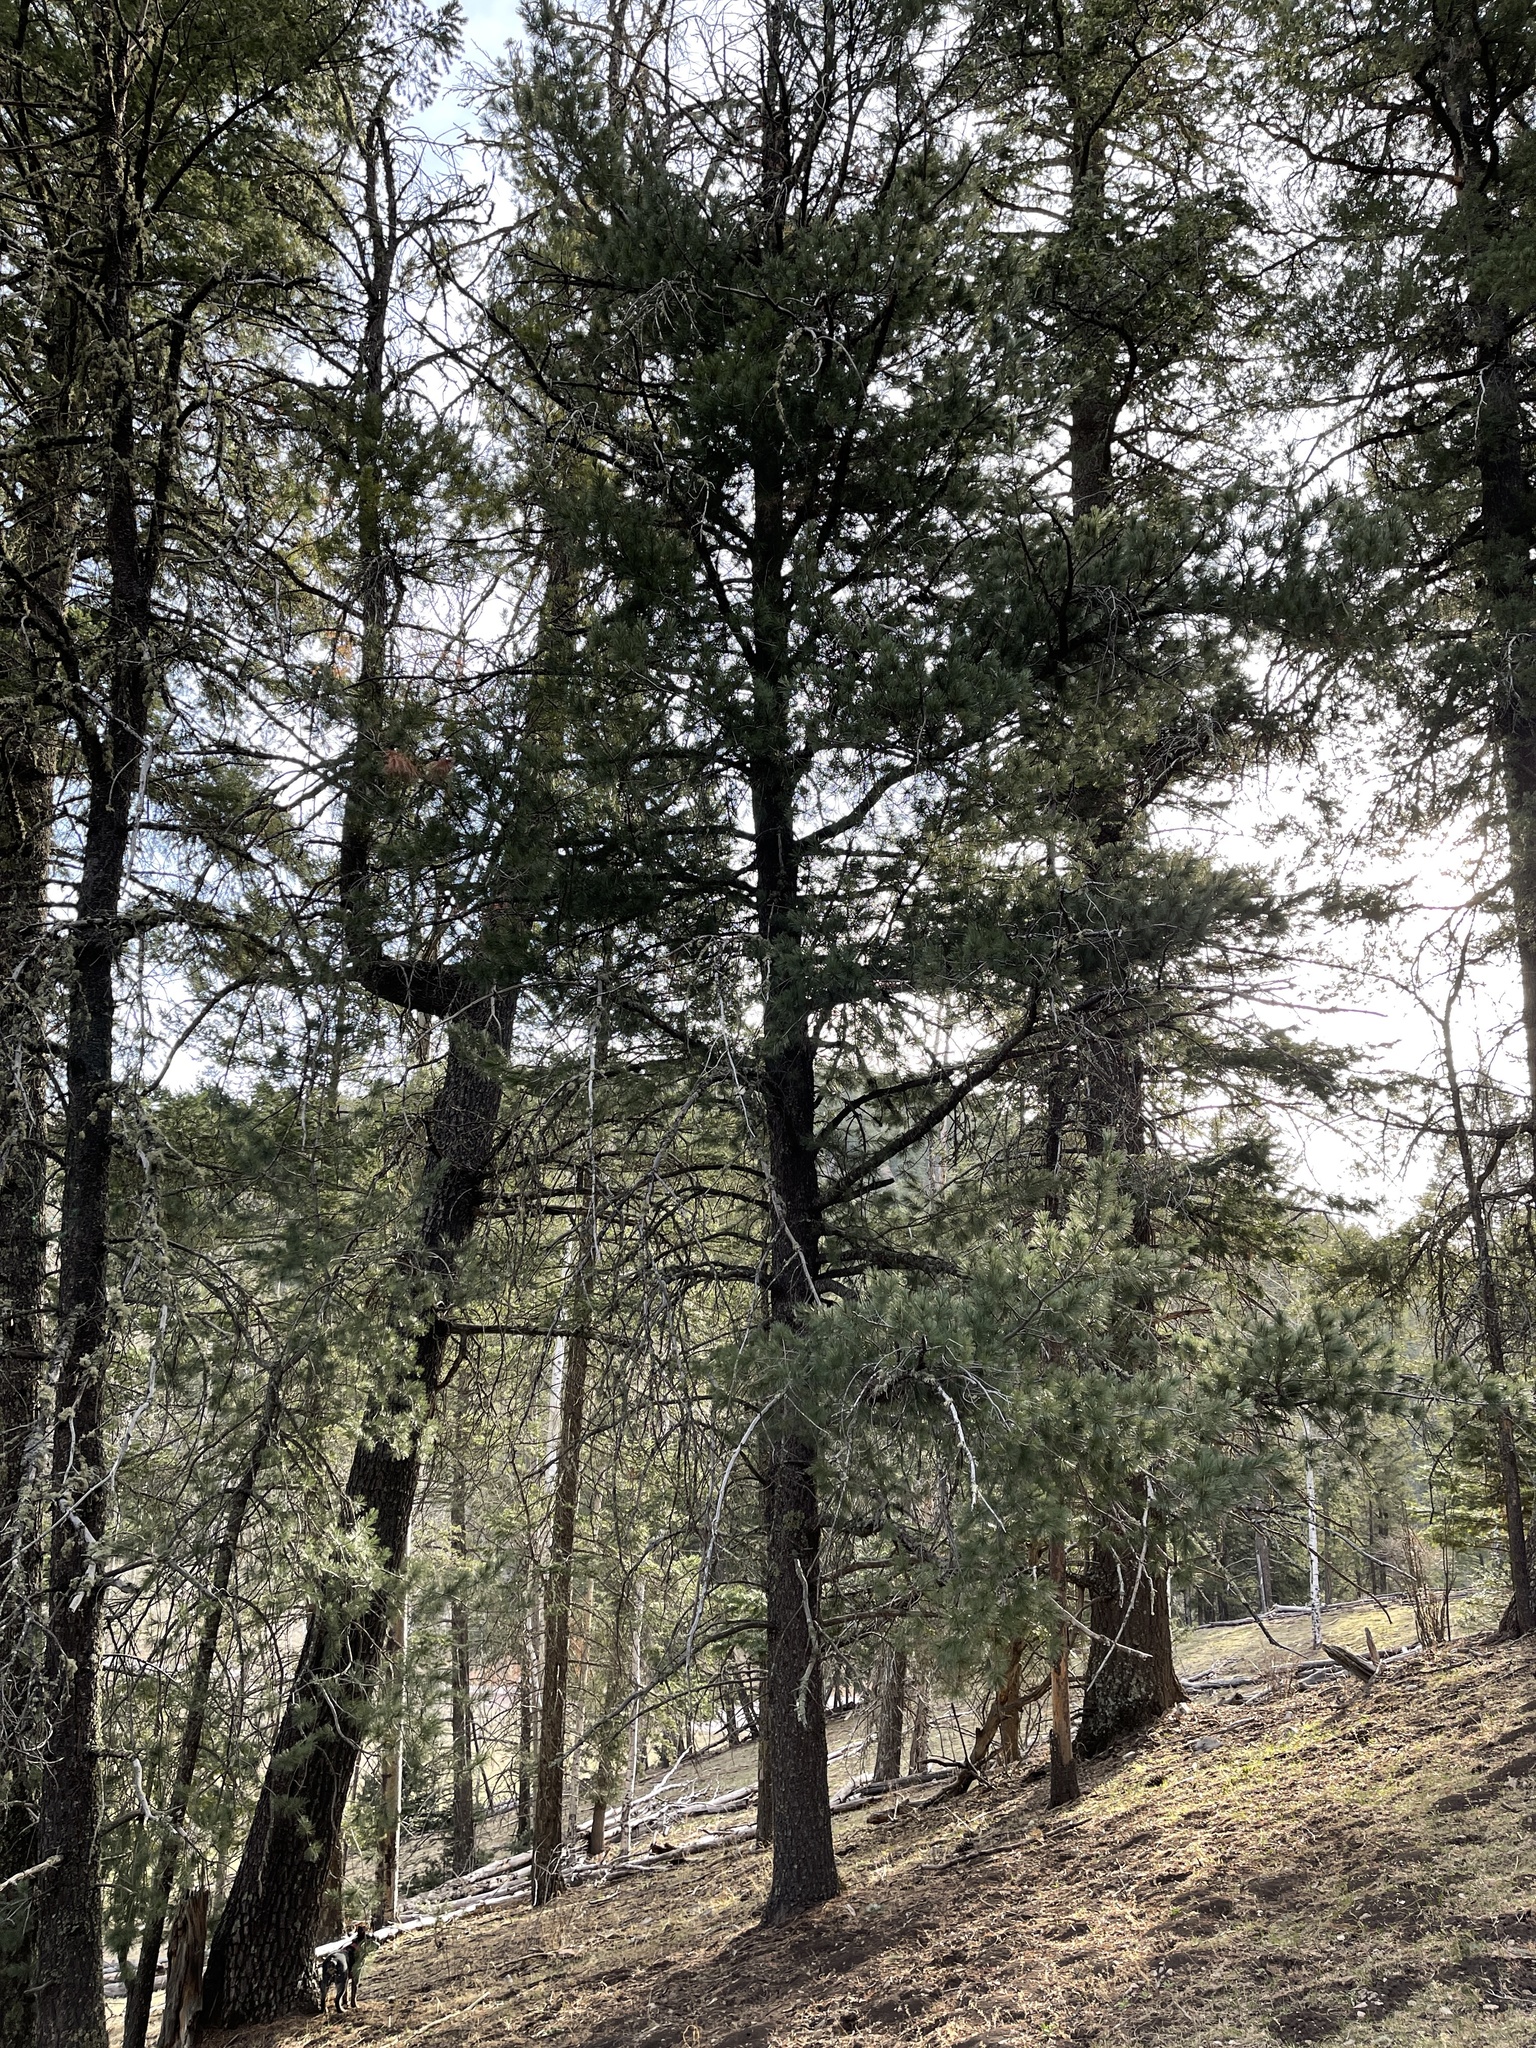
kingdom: Plantae
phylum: Tracheophyta
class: Pinopsida
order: Pinales
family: Pinaceae
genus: Pinus
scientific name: Pinus strobiformis
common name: Southwestern white pine
